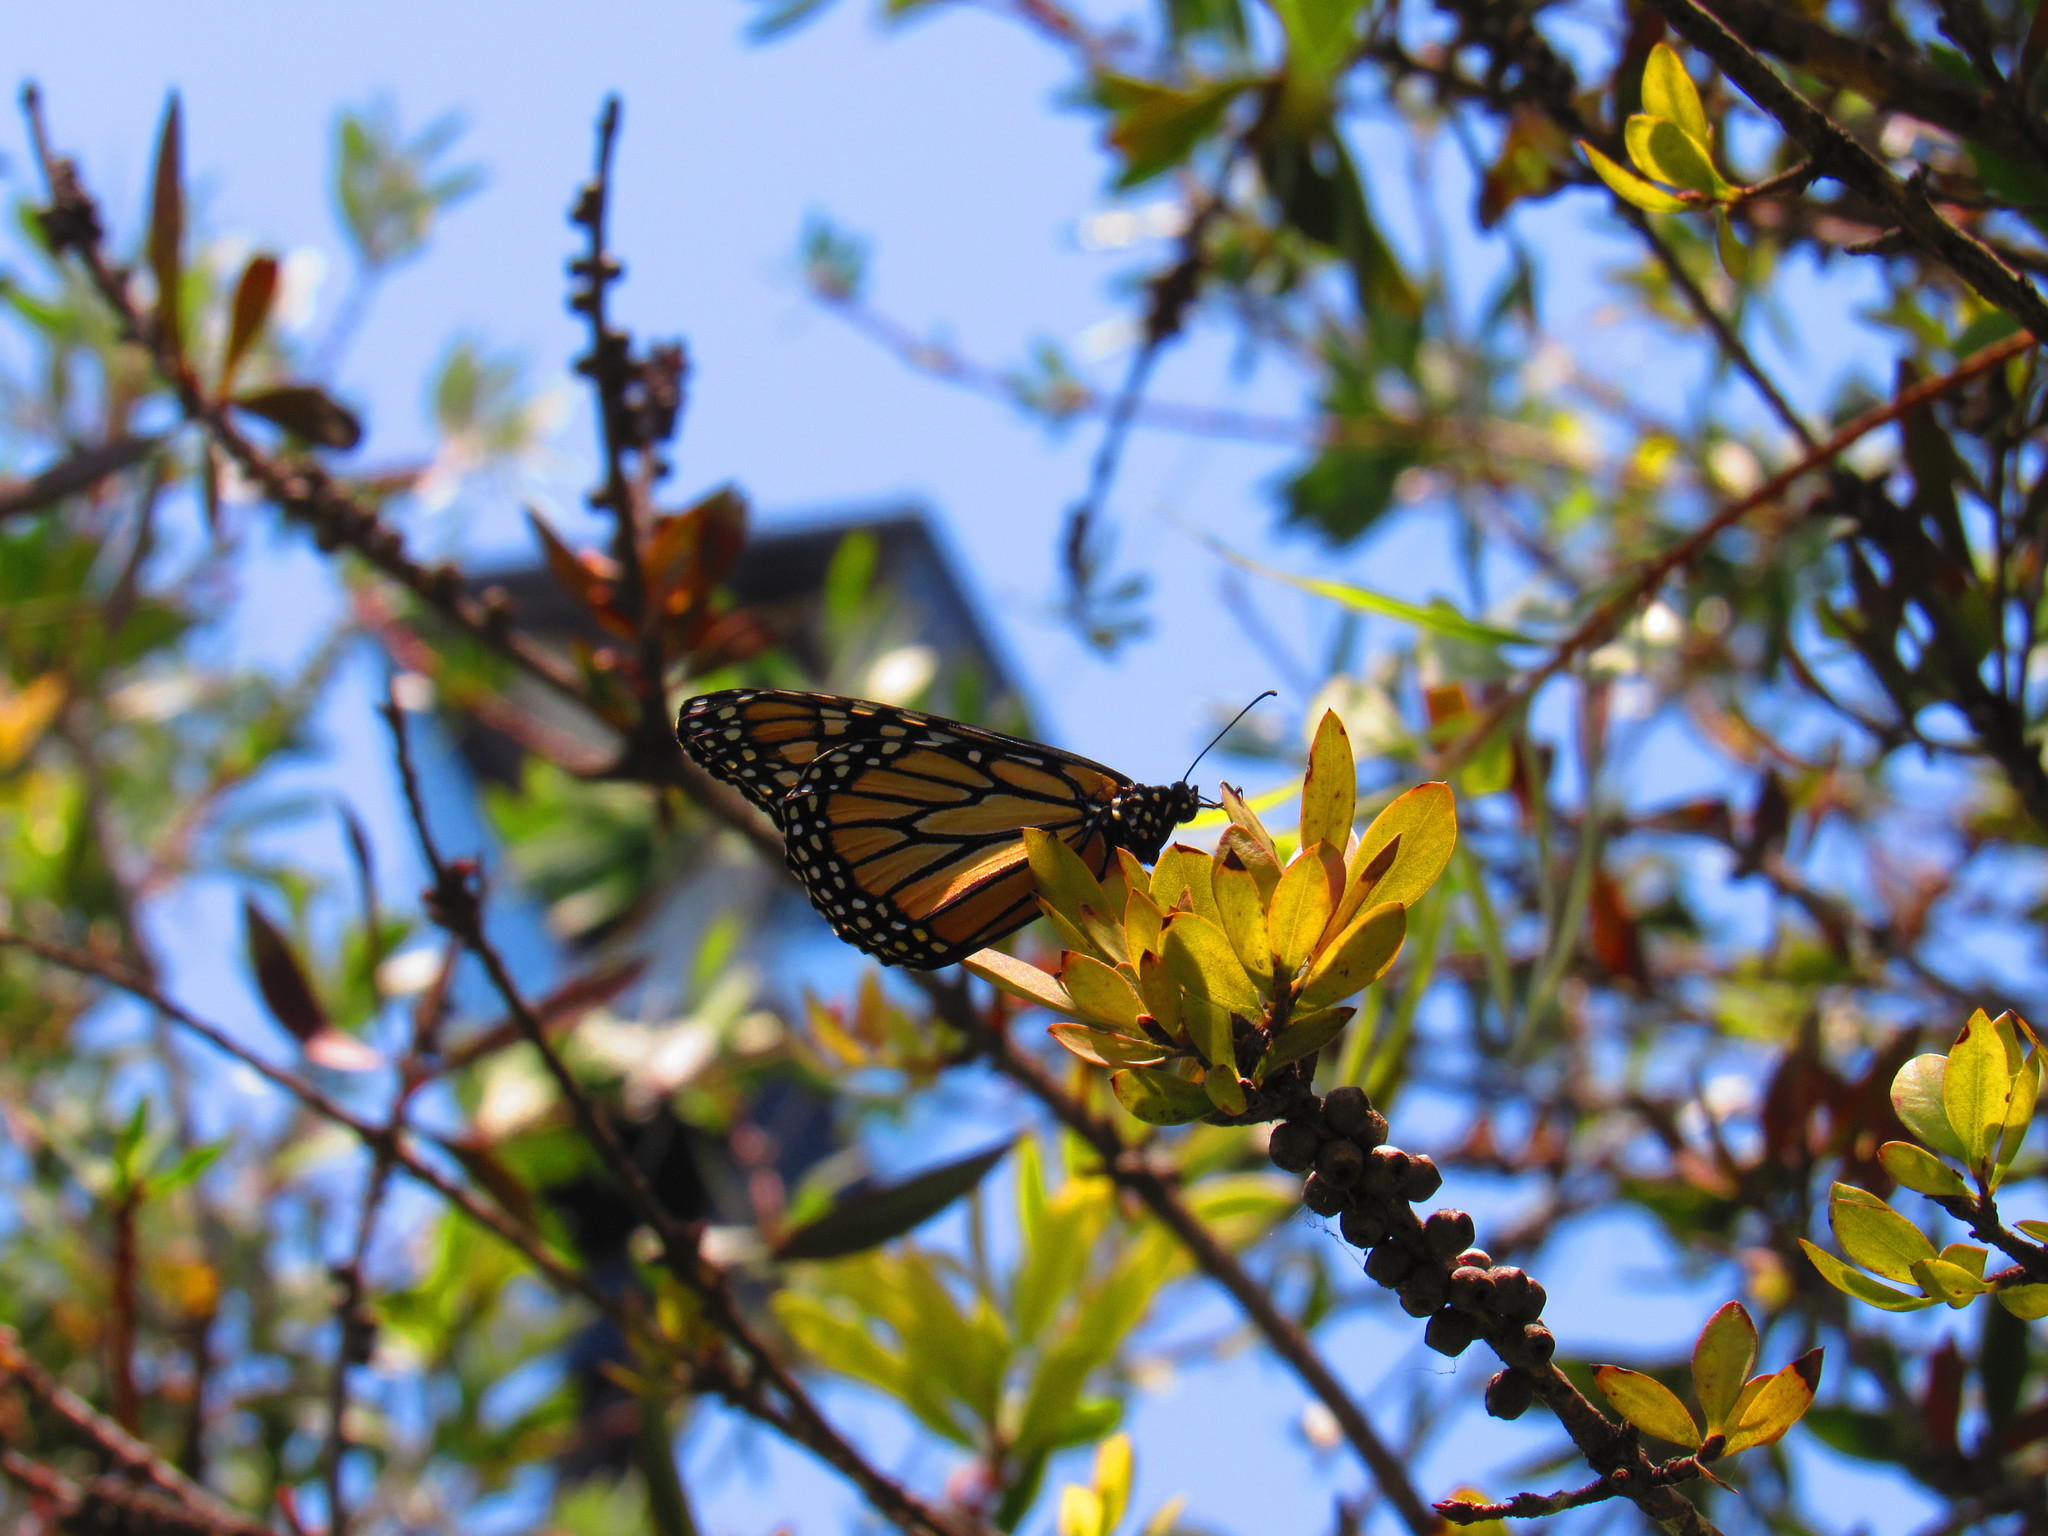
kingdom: Animalia
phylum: Arthropoda
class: Insecta
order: Lepidoptera
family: Nymphalidae
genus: Danaus
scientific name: Danaus plexippus
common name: Monarch
